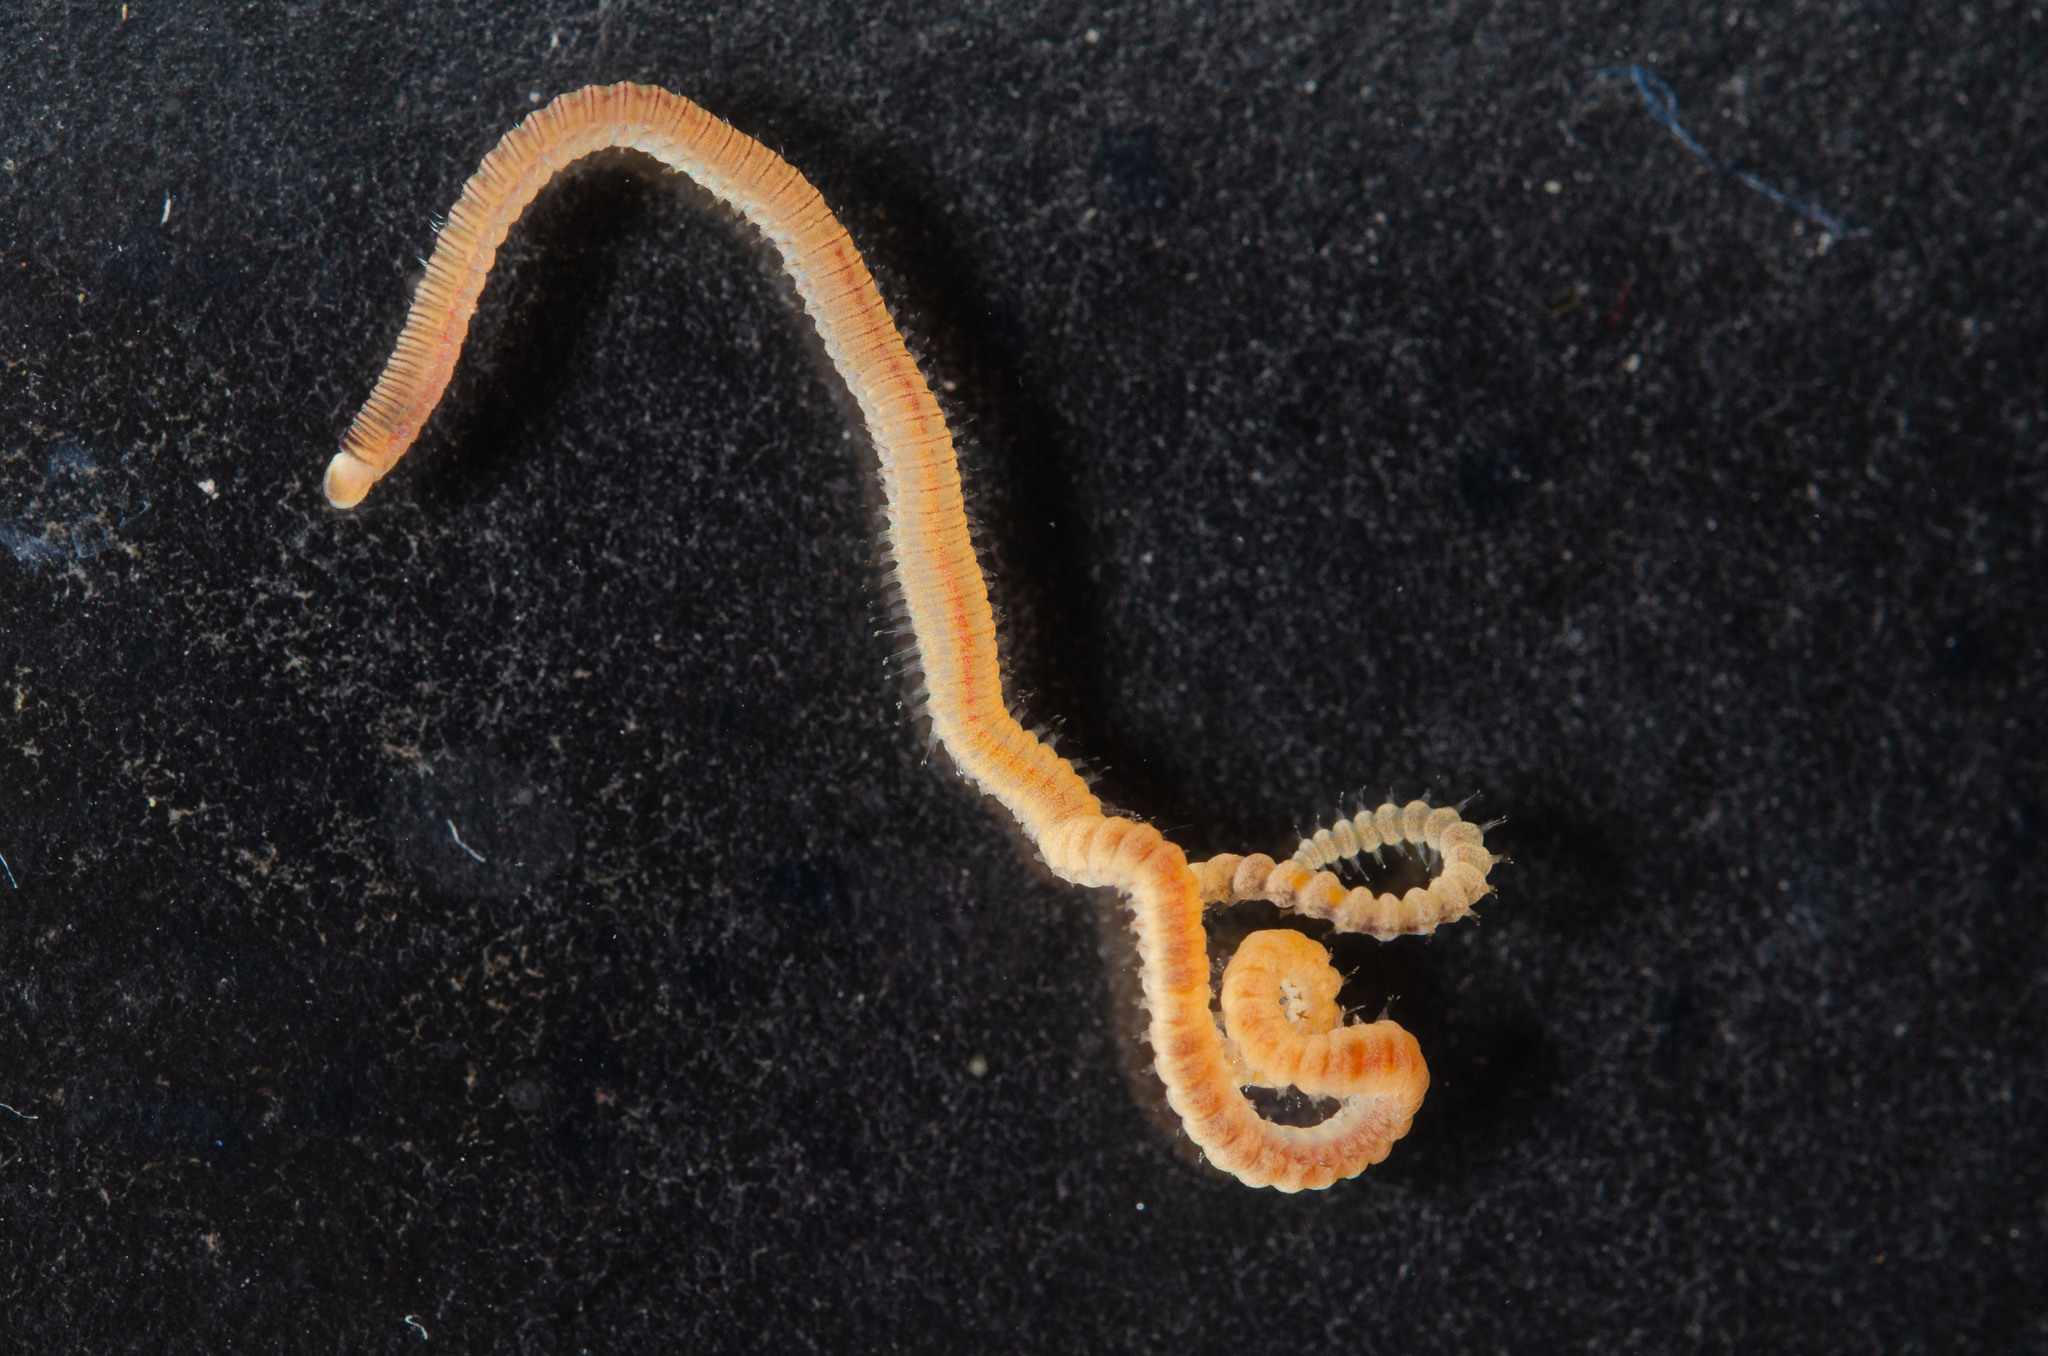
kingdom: Animalia
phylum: Annelida
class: Polychaeta
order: Eunicida
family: Lumbrineridae
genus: Lumbrineris
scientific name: Lumbrineris perkinsi
